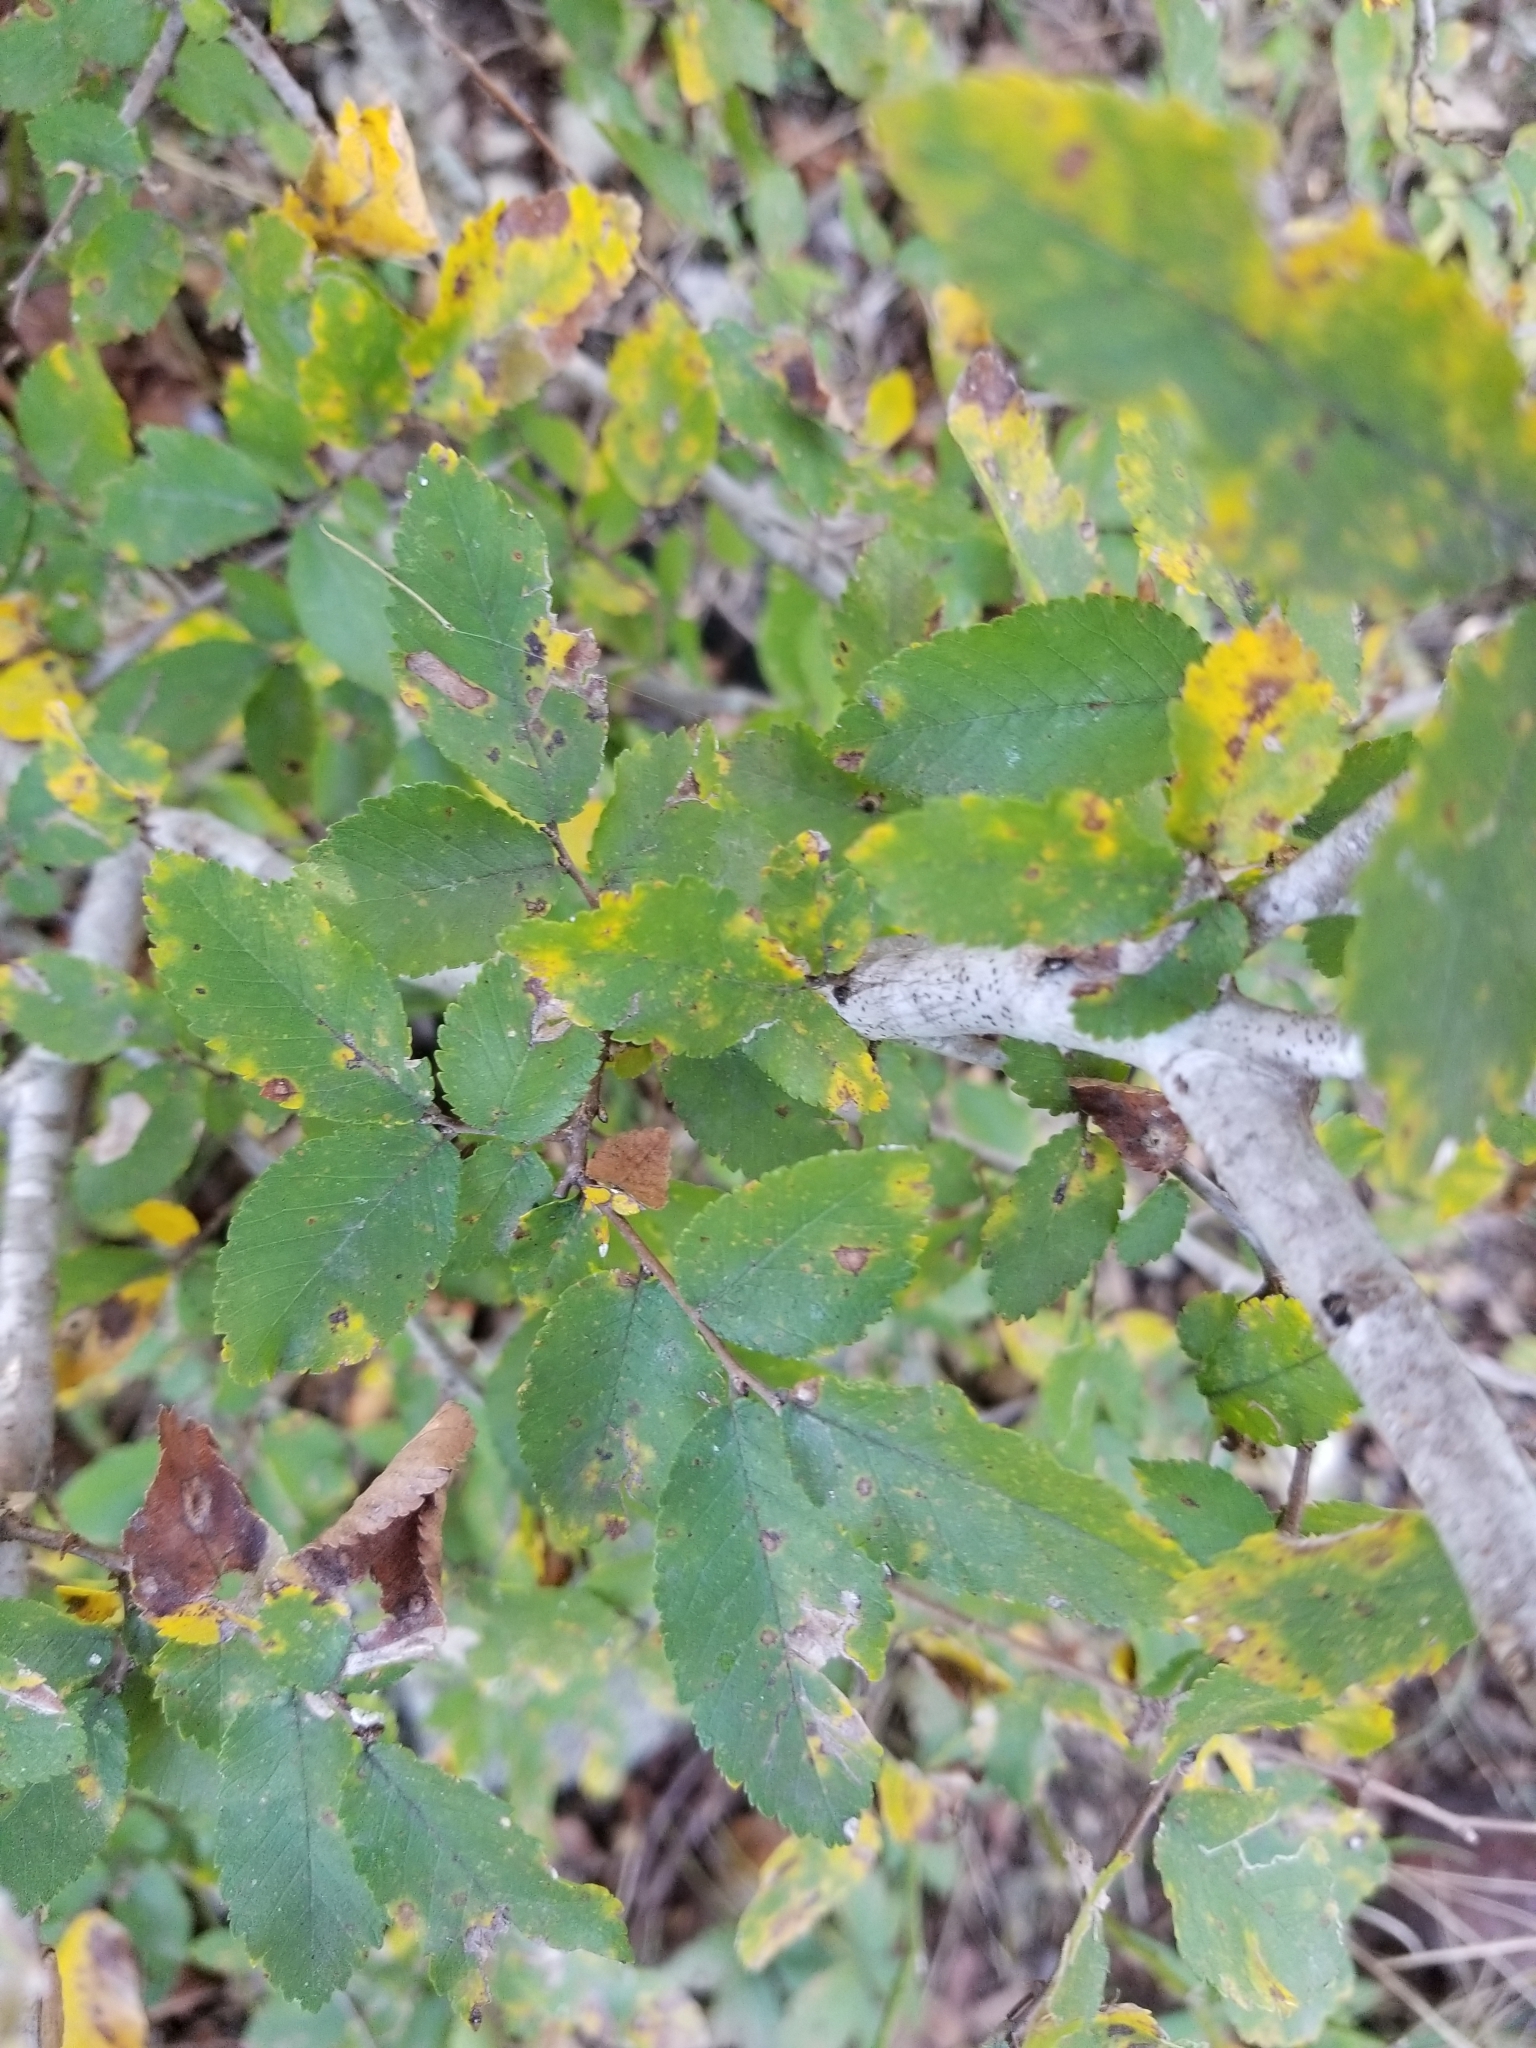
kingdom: Plantae
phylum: Tracheophyta
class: Magnoliopsida
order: Rosales
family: Ulmaceae
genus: Ulmus
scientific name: Ulmus crassifolia
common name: Basket elm
